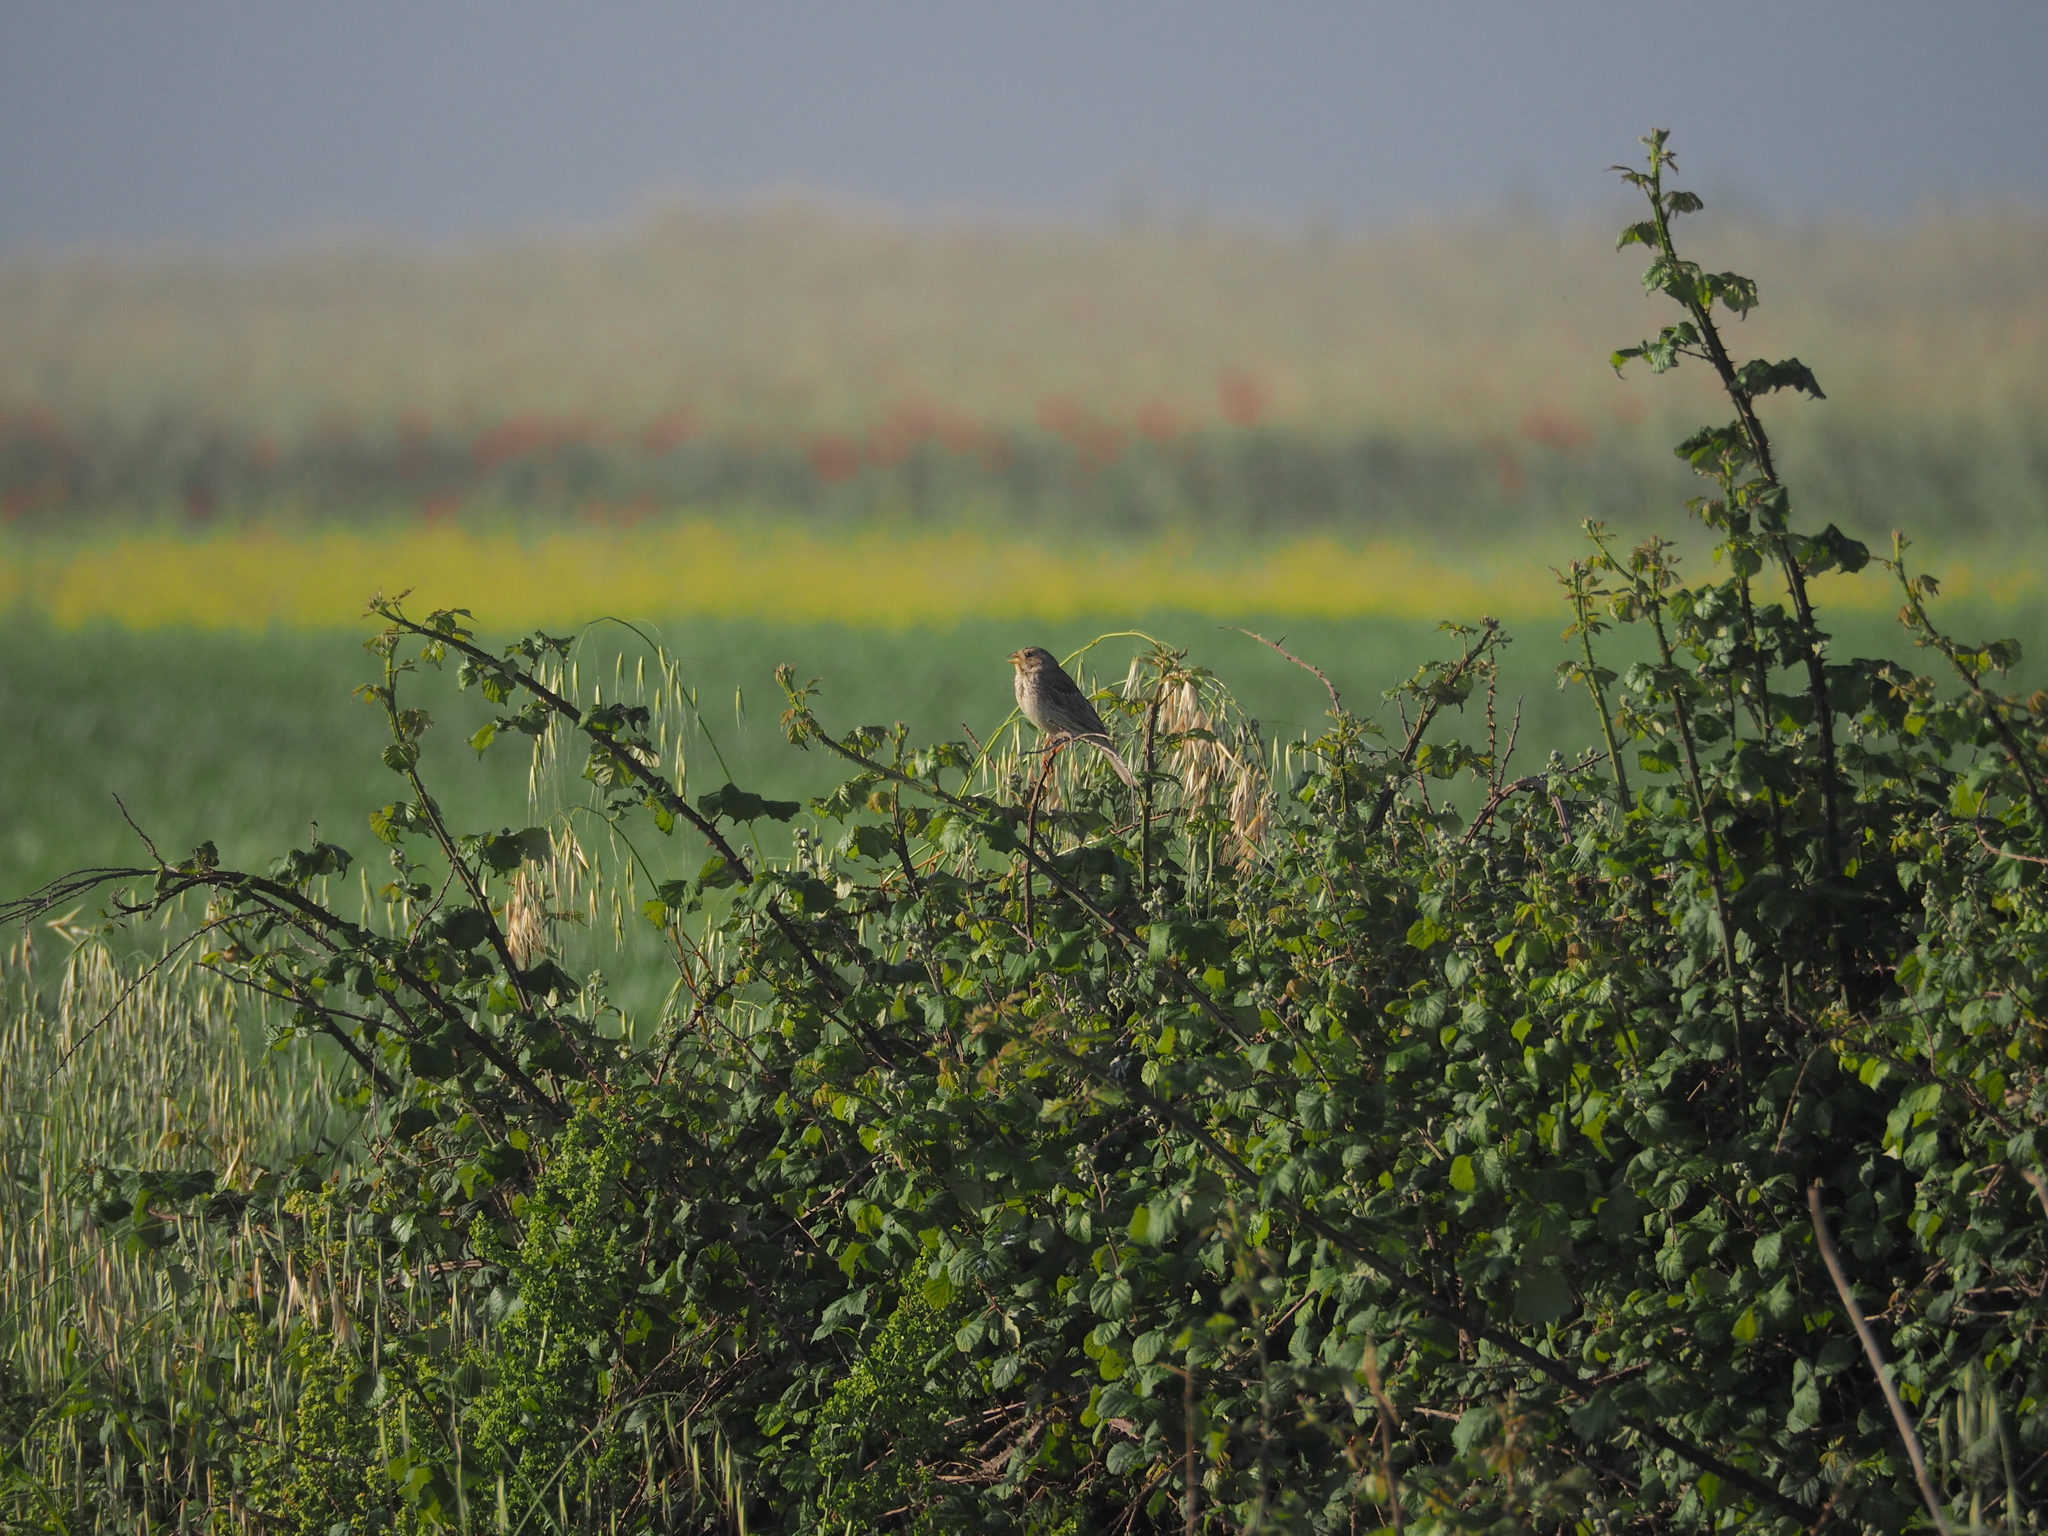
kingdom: Animalia
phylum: Chordata
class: Aves
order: Passeriformes
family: Emberizidae
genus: Emberiza
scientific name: Emberiza calandra
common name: Corn bunting
